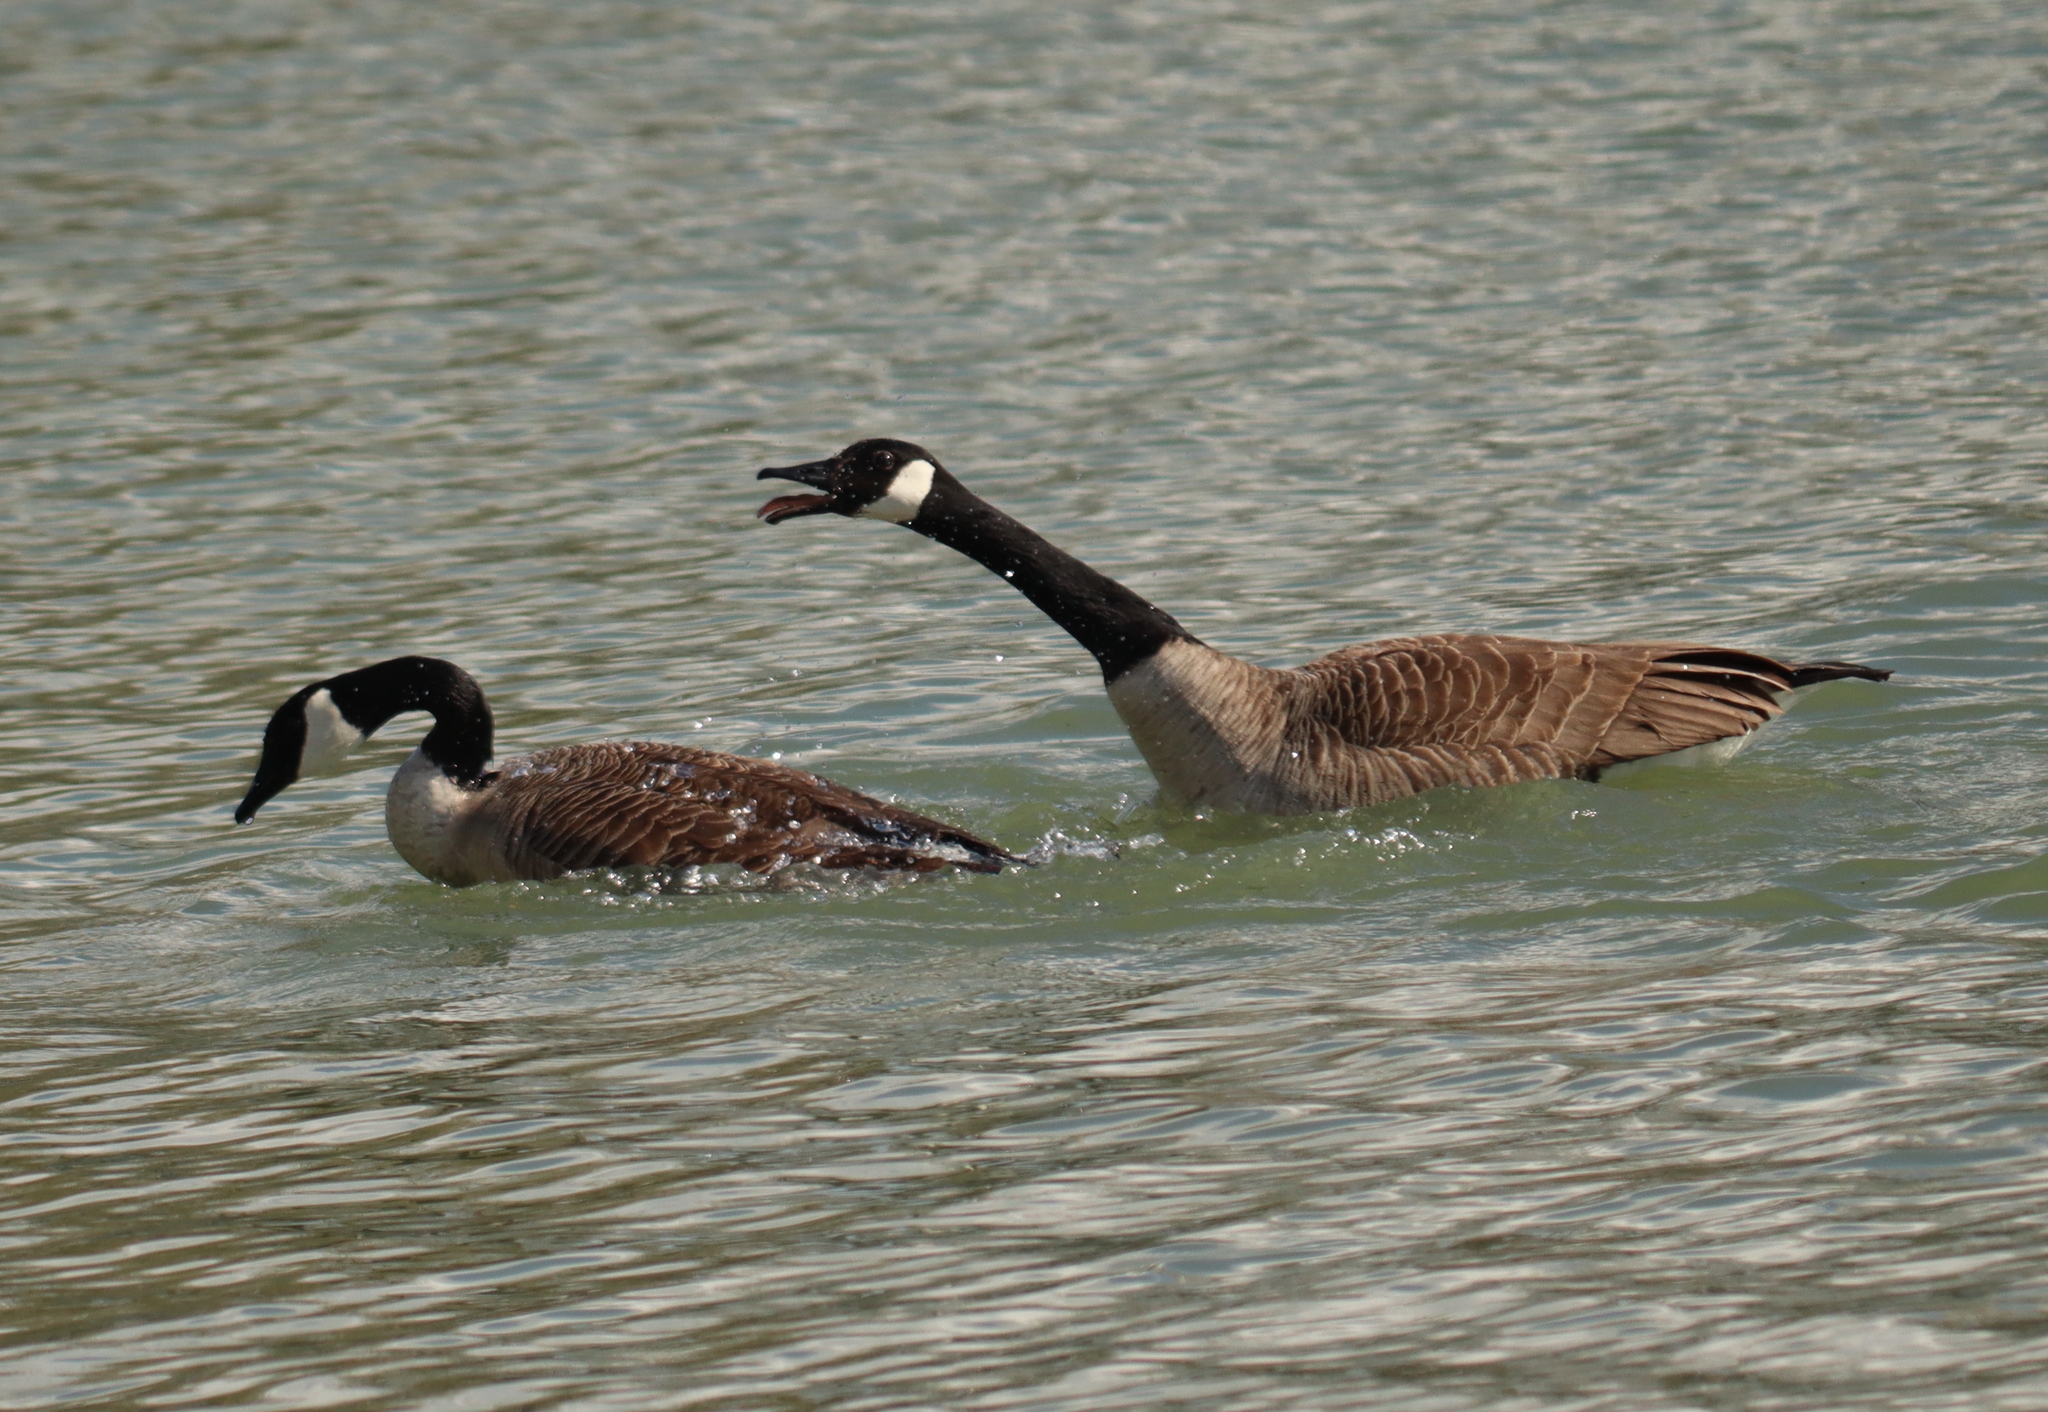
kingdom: Animalia
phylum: Chordata
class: Aves
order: Anseriformes
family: Anatidae
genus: Branta
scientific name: Branta canadensis
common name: Canada goose
